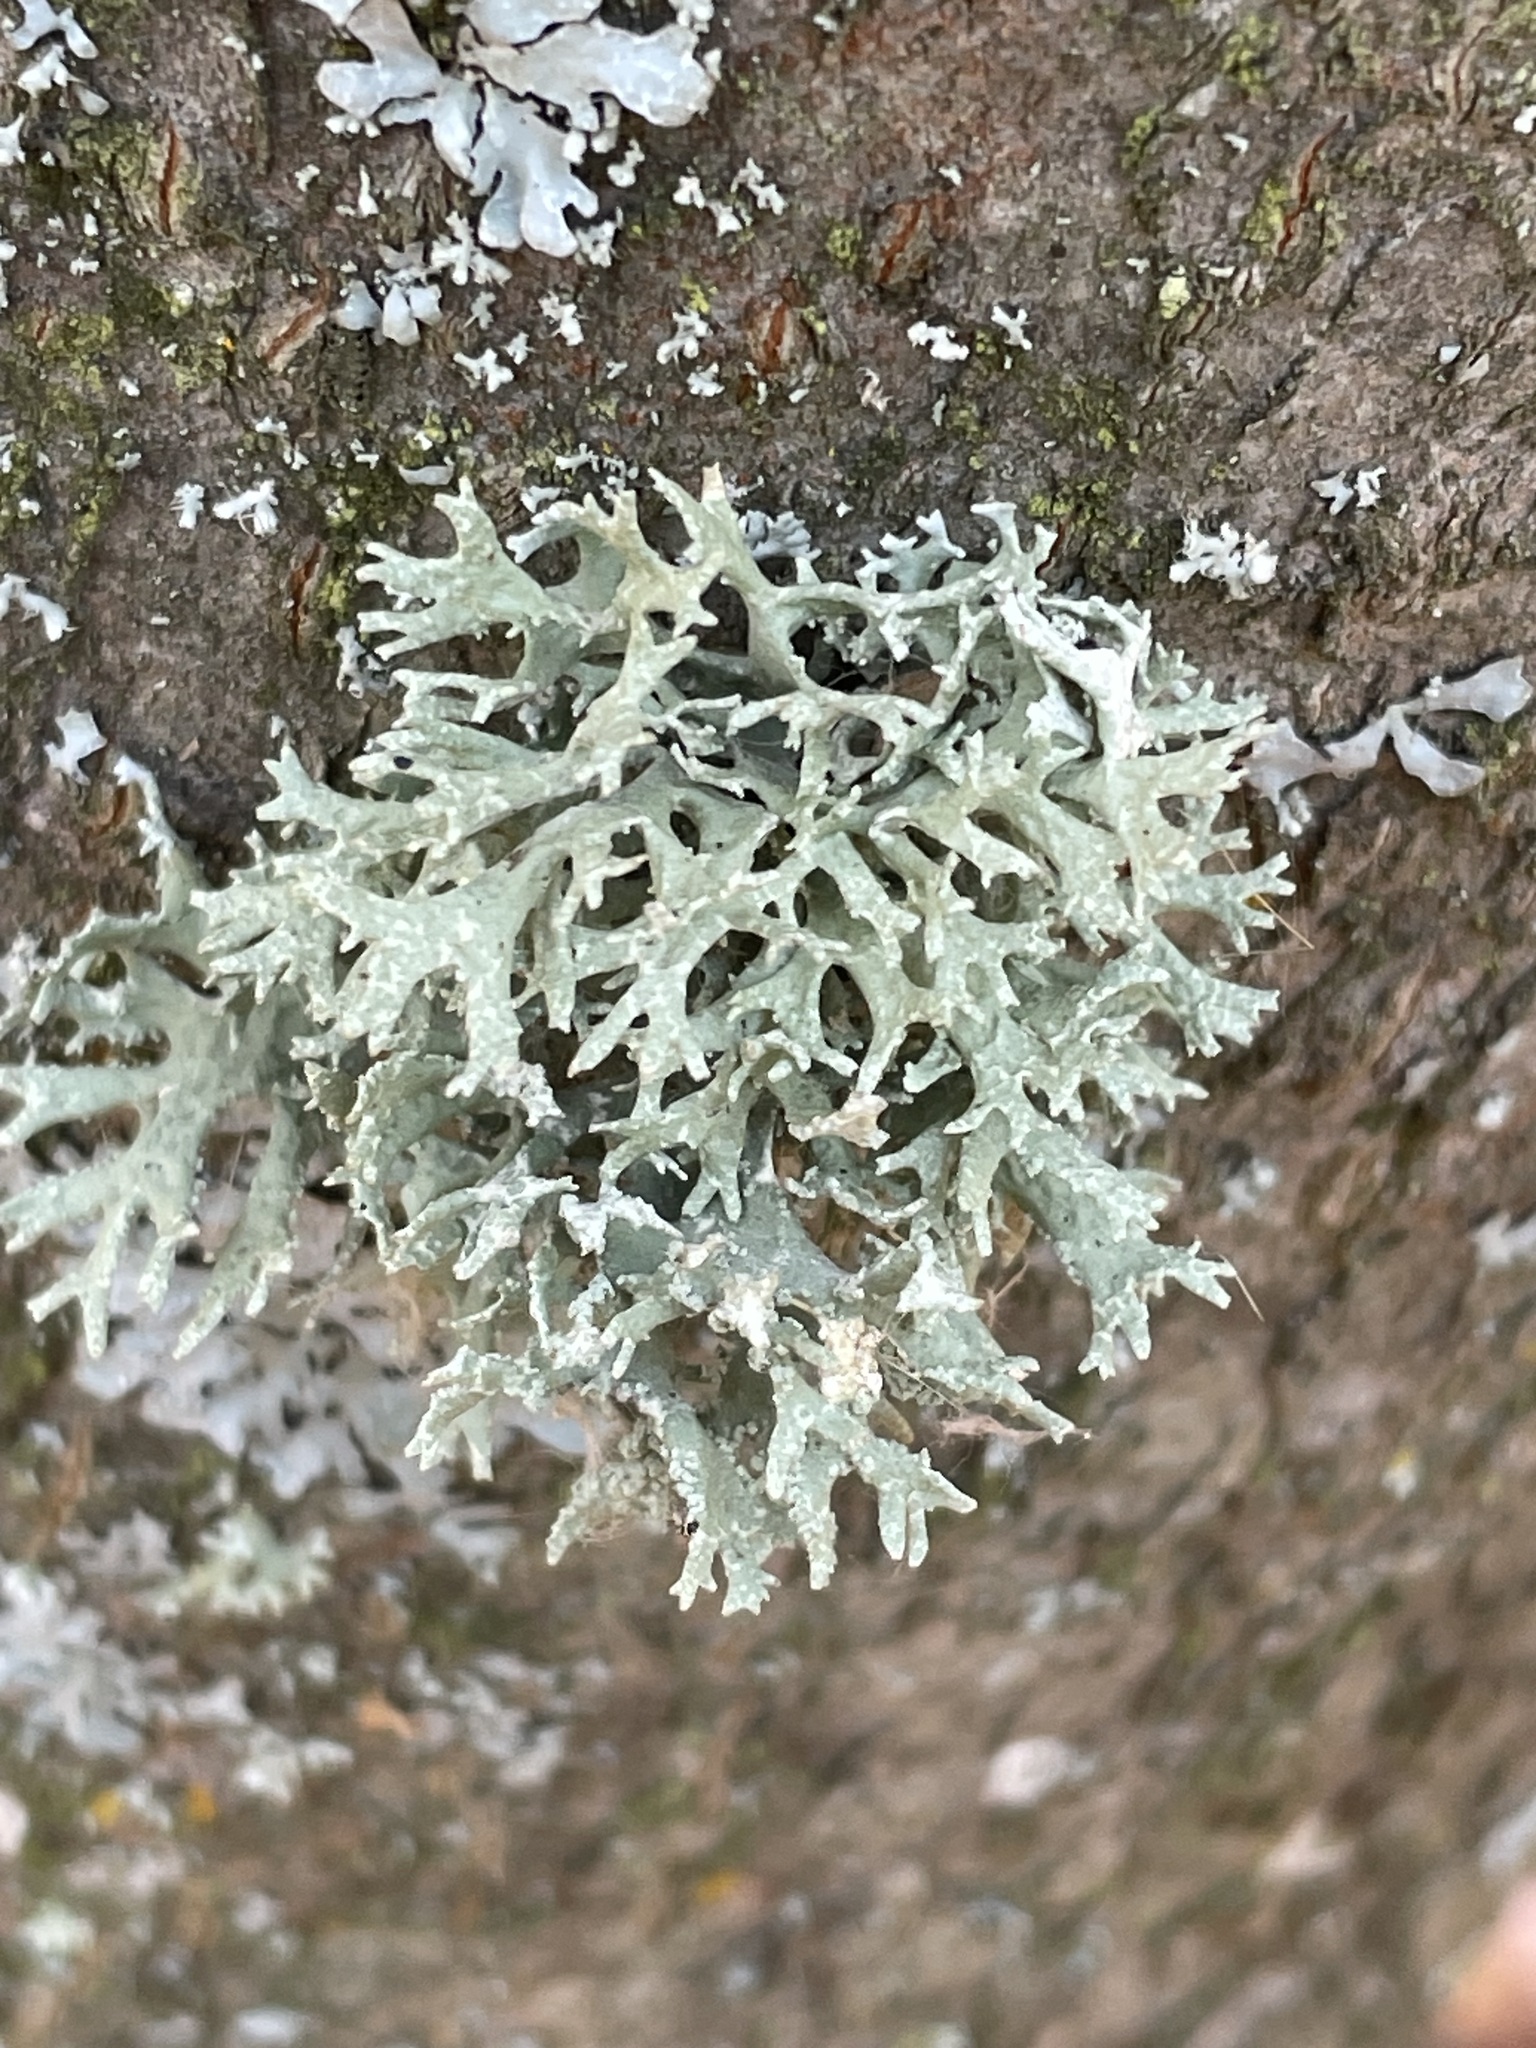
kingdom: Fungi
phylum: Ascomycota
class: Lecanoromycetes
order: Lecanorales
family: Parmeliaceae
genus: Evernia
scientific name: Evernia prunastri
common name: Oak moss
